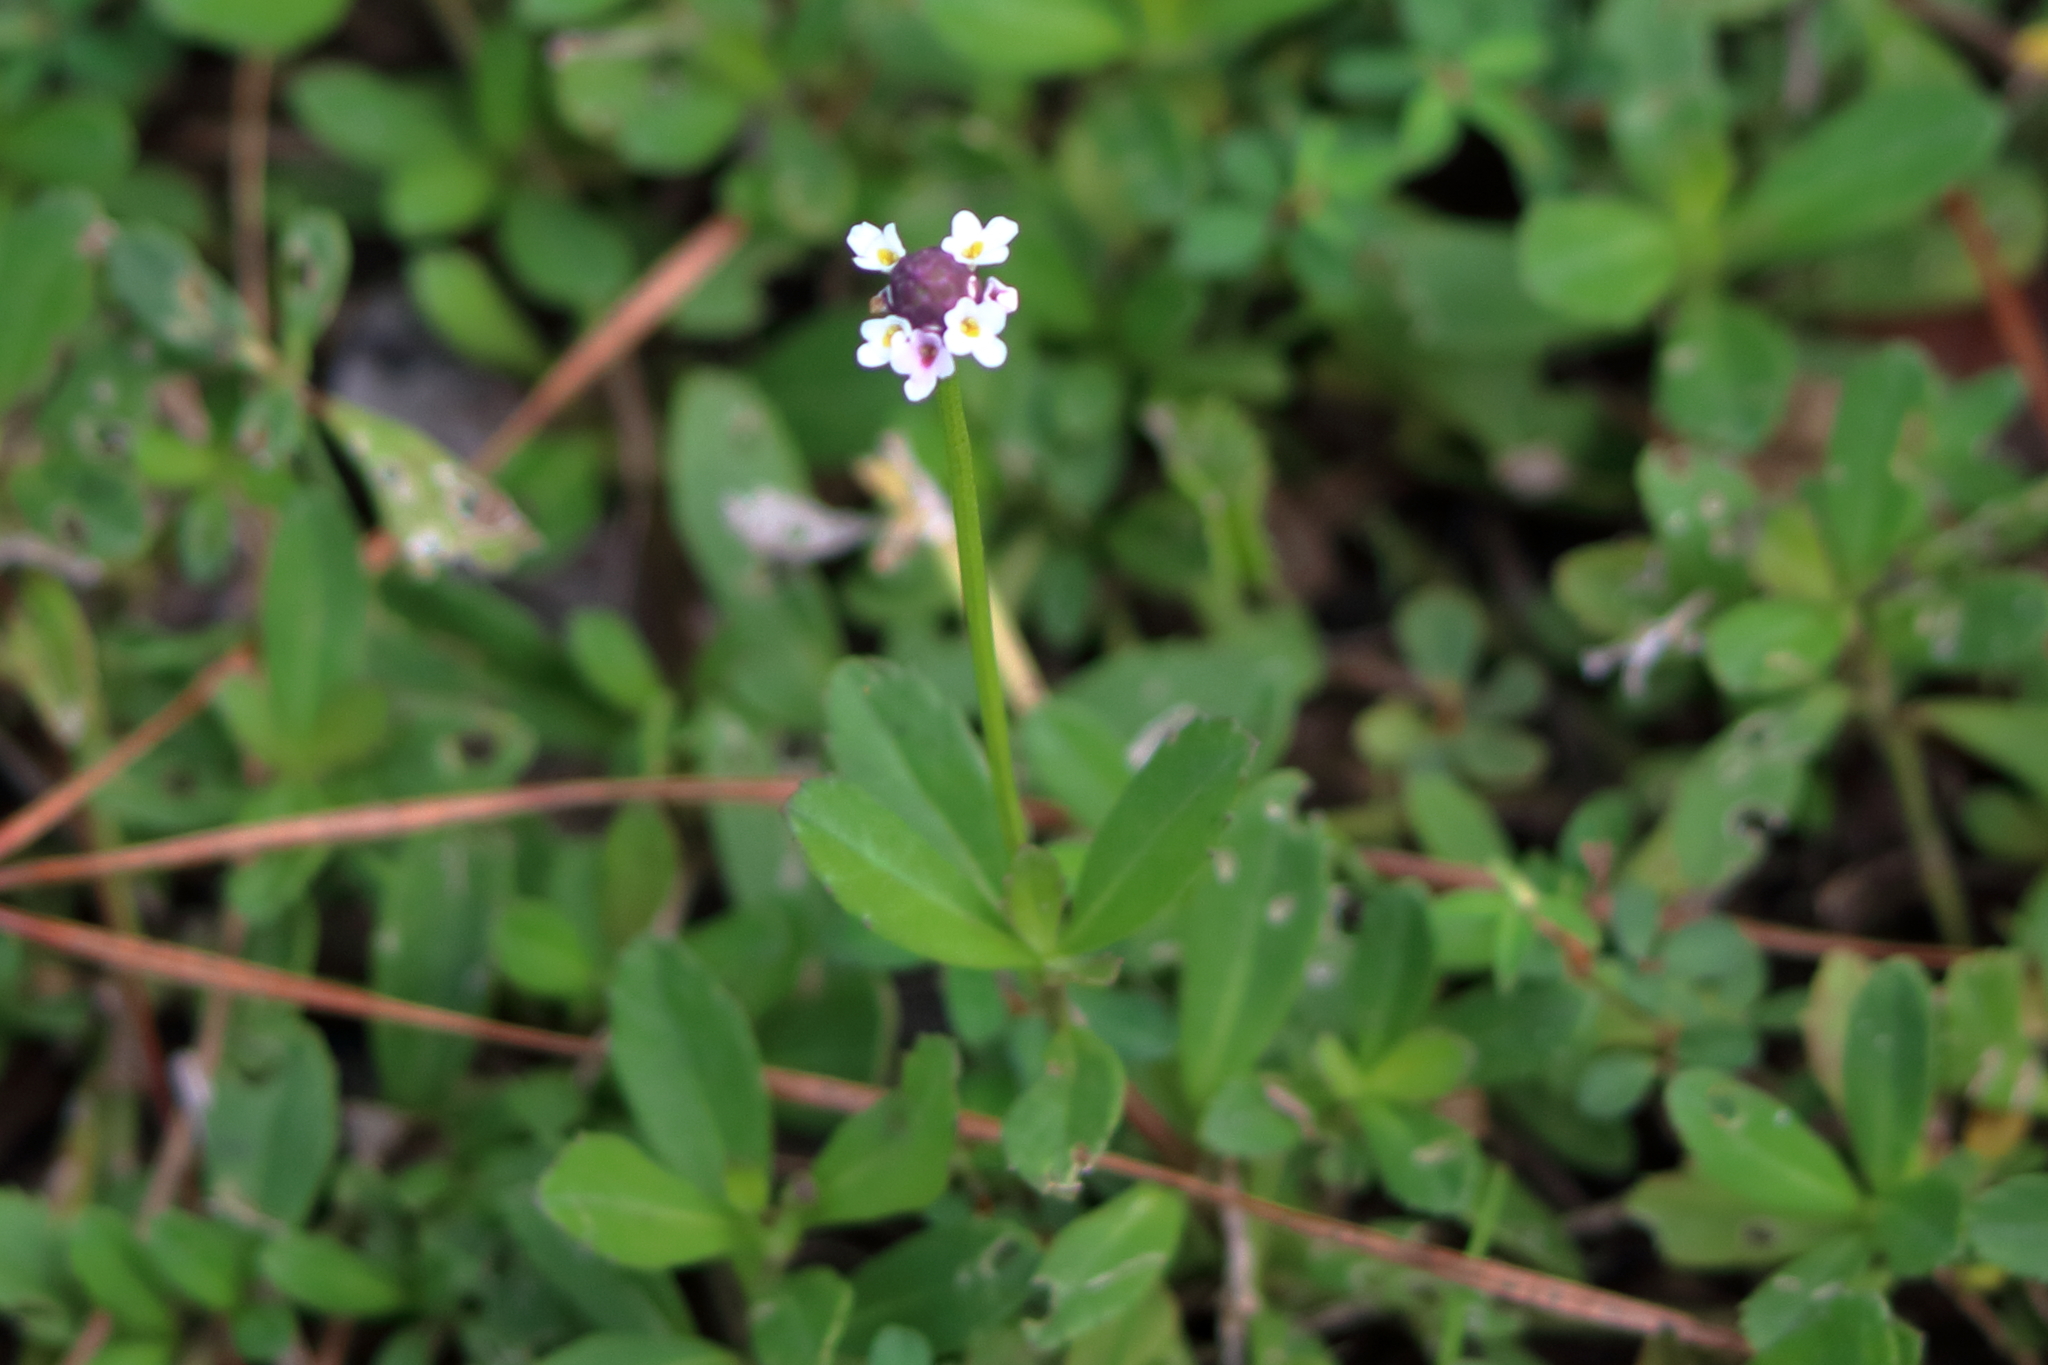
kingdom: Plantae
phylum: Tracheophyta
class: Magnoliopsida
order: Lamiales
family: Verbenaceae
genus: Phyla
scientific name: Phyla nodiflora
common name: Frogfruit
